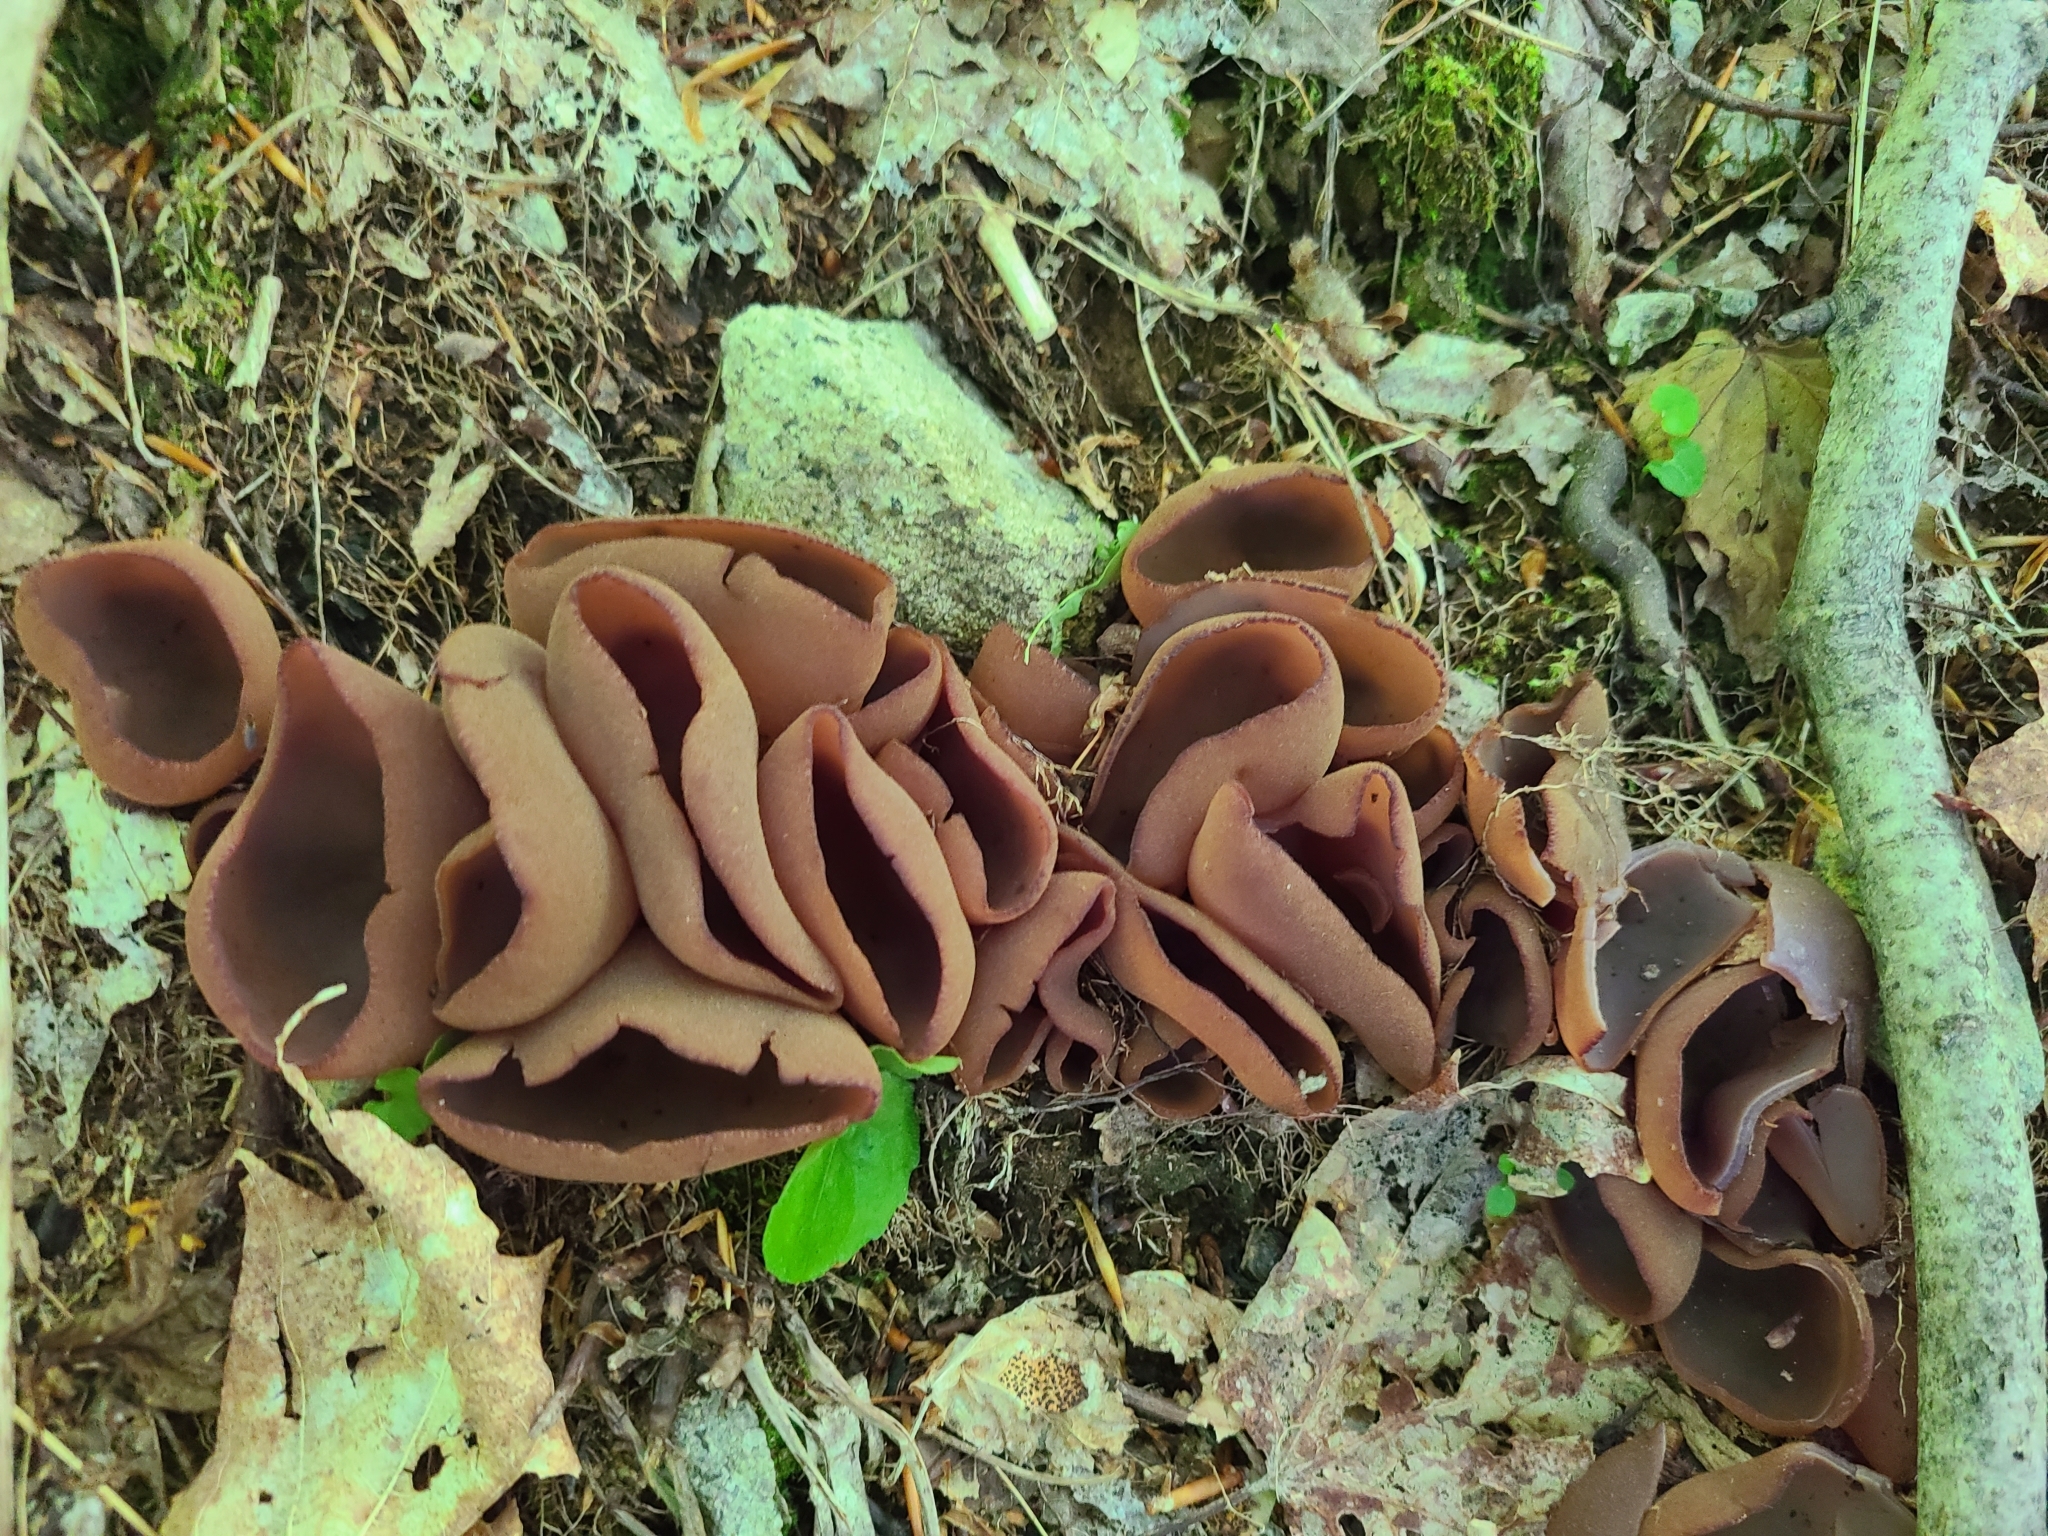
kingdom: Fungi
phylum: Ascomycota
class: Pezizomycetes
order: Pezizales
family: Pezizaceae
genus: Phylloscypha
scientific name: Phylloscypha phyllogena
